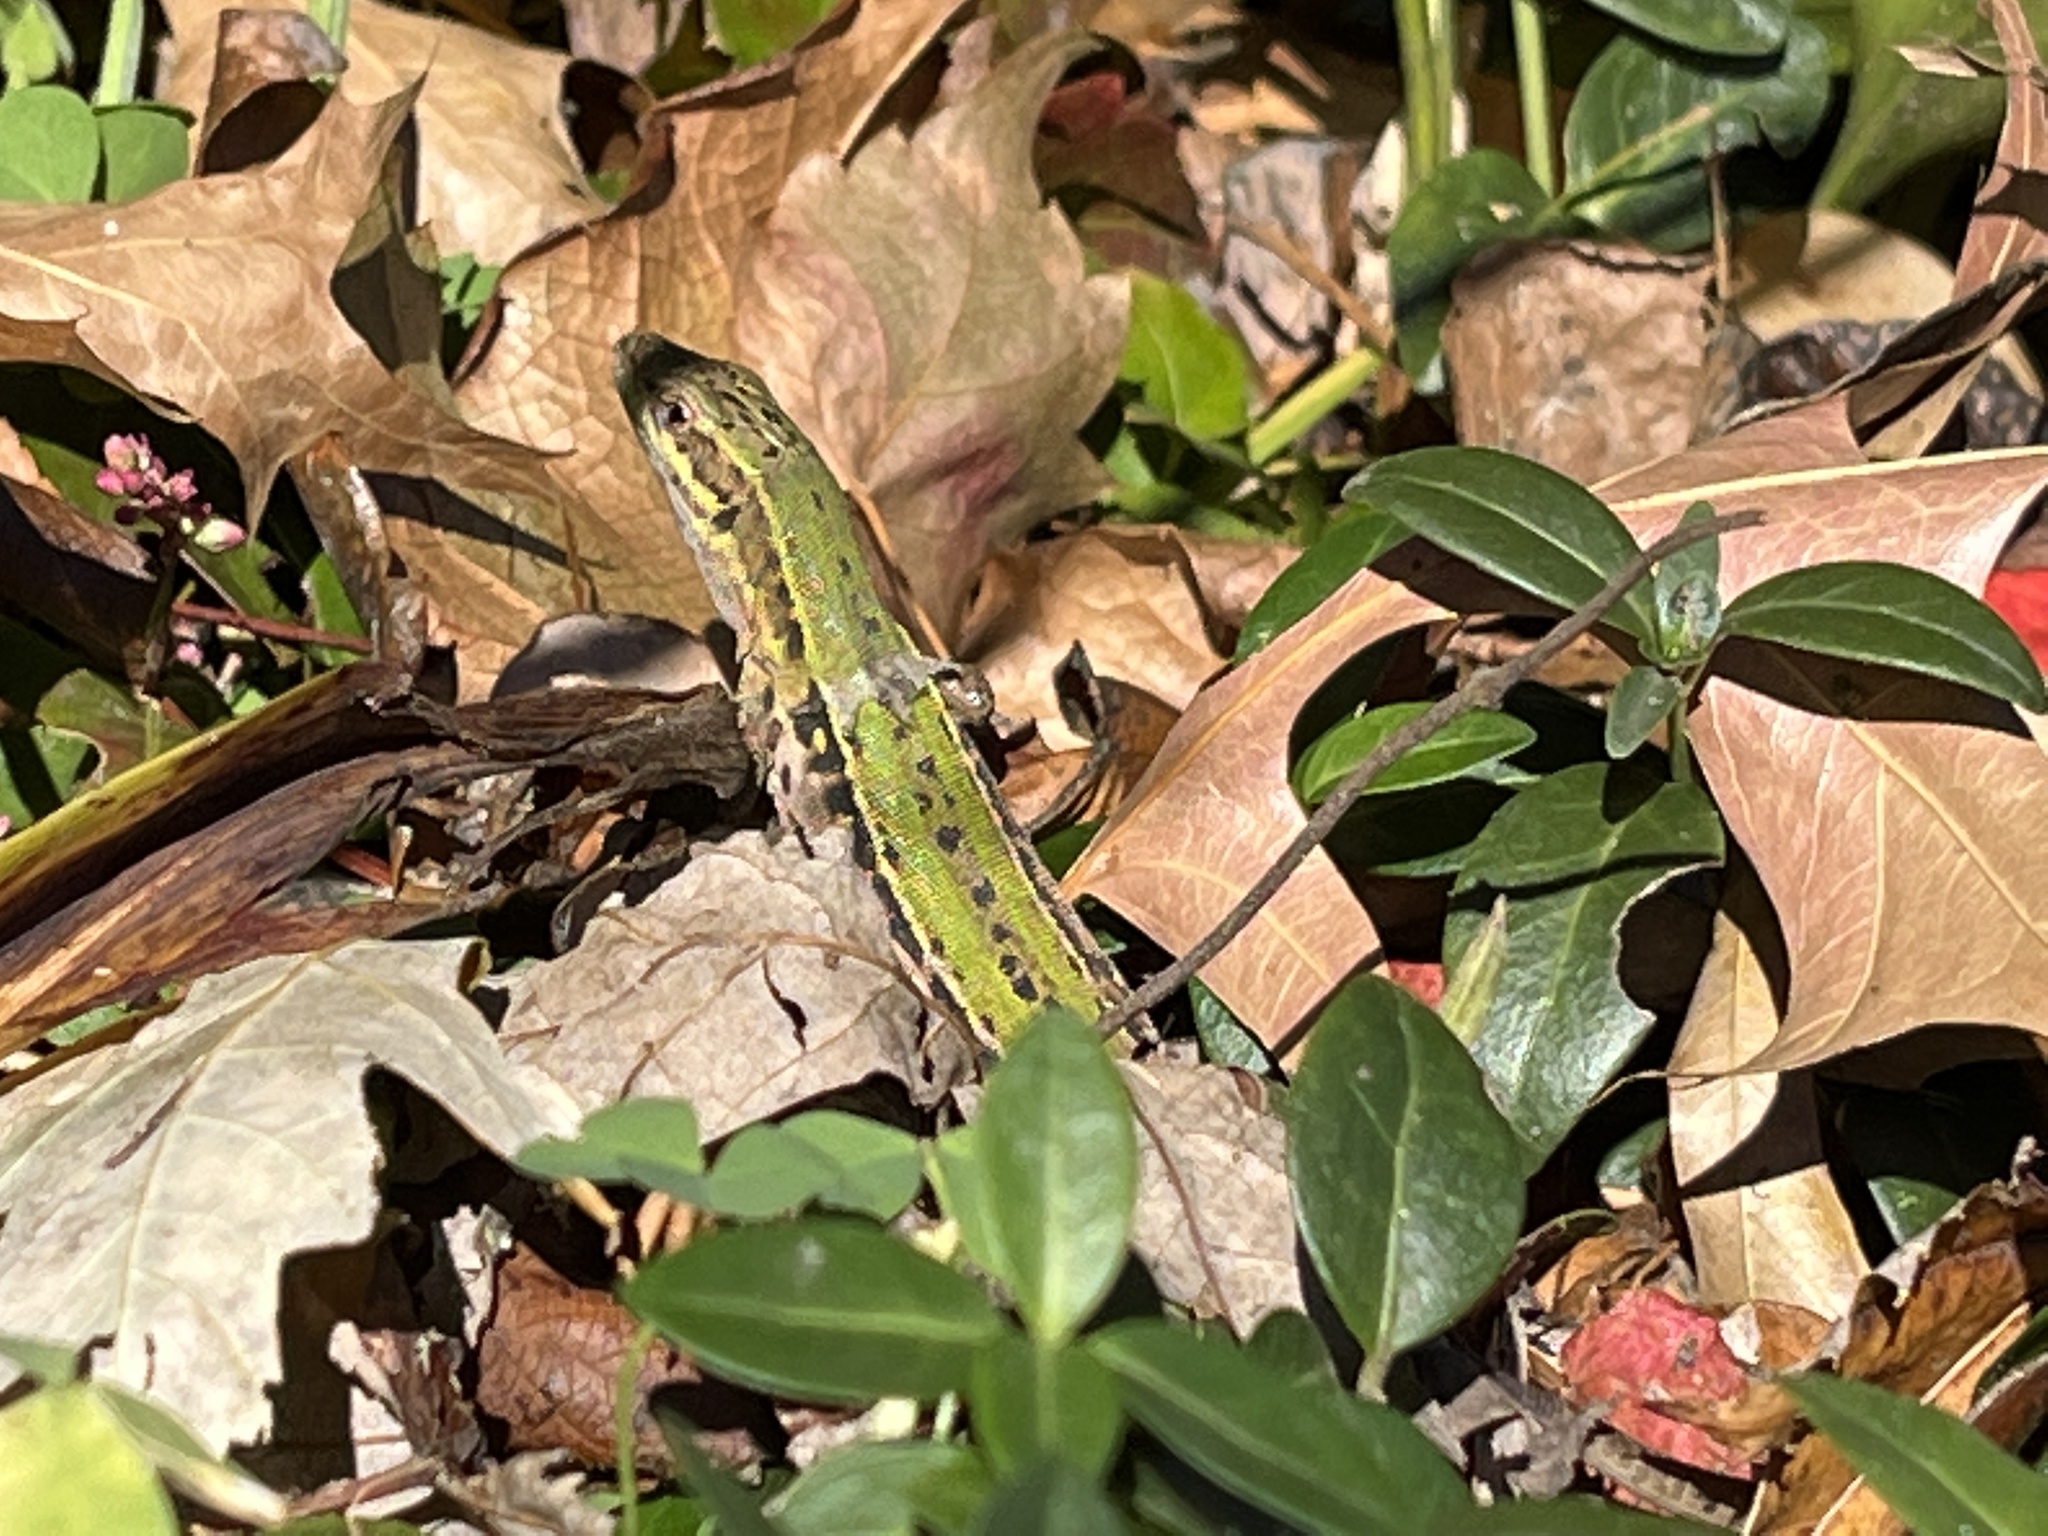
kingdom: Animalia
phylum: Chordata
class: Squamata
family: Lacertidae
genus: Podarcis
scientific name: Podarcis siculus
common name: Italian wall lizard
